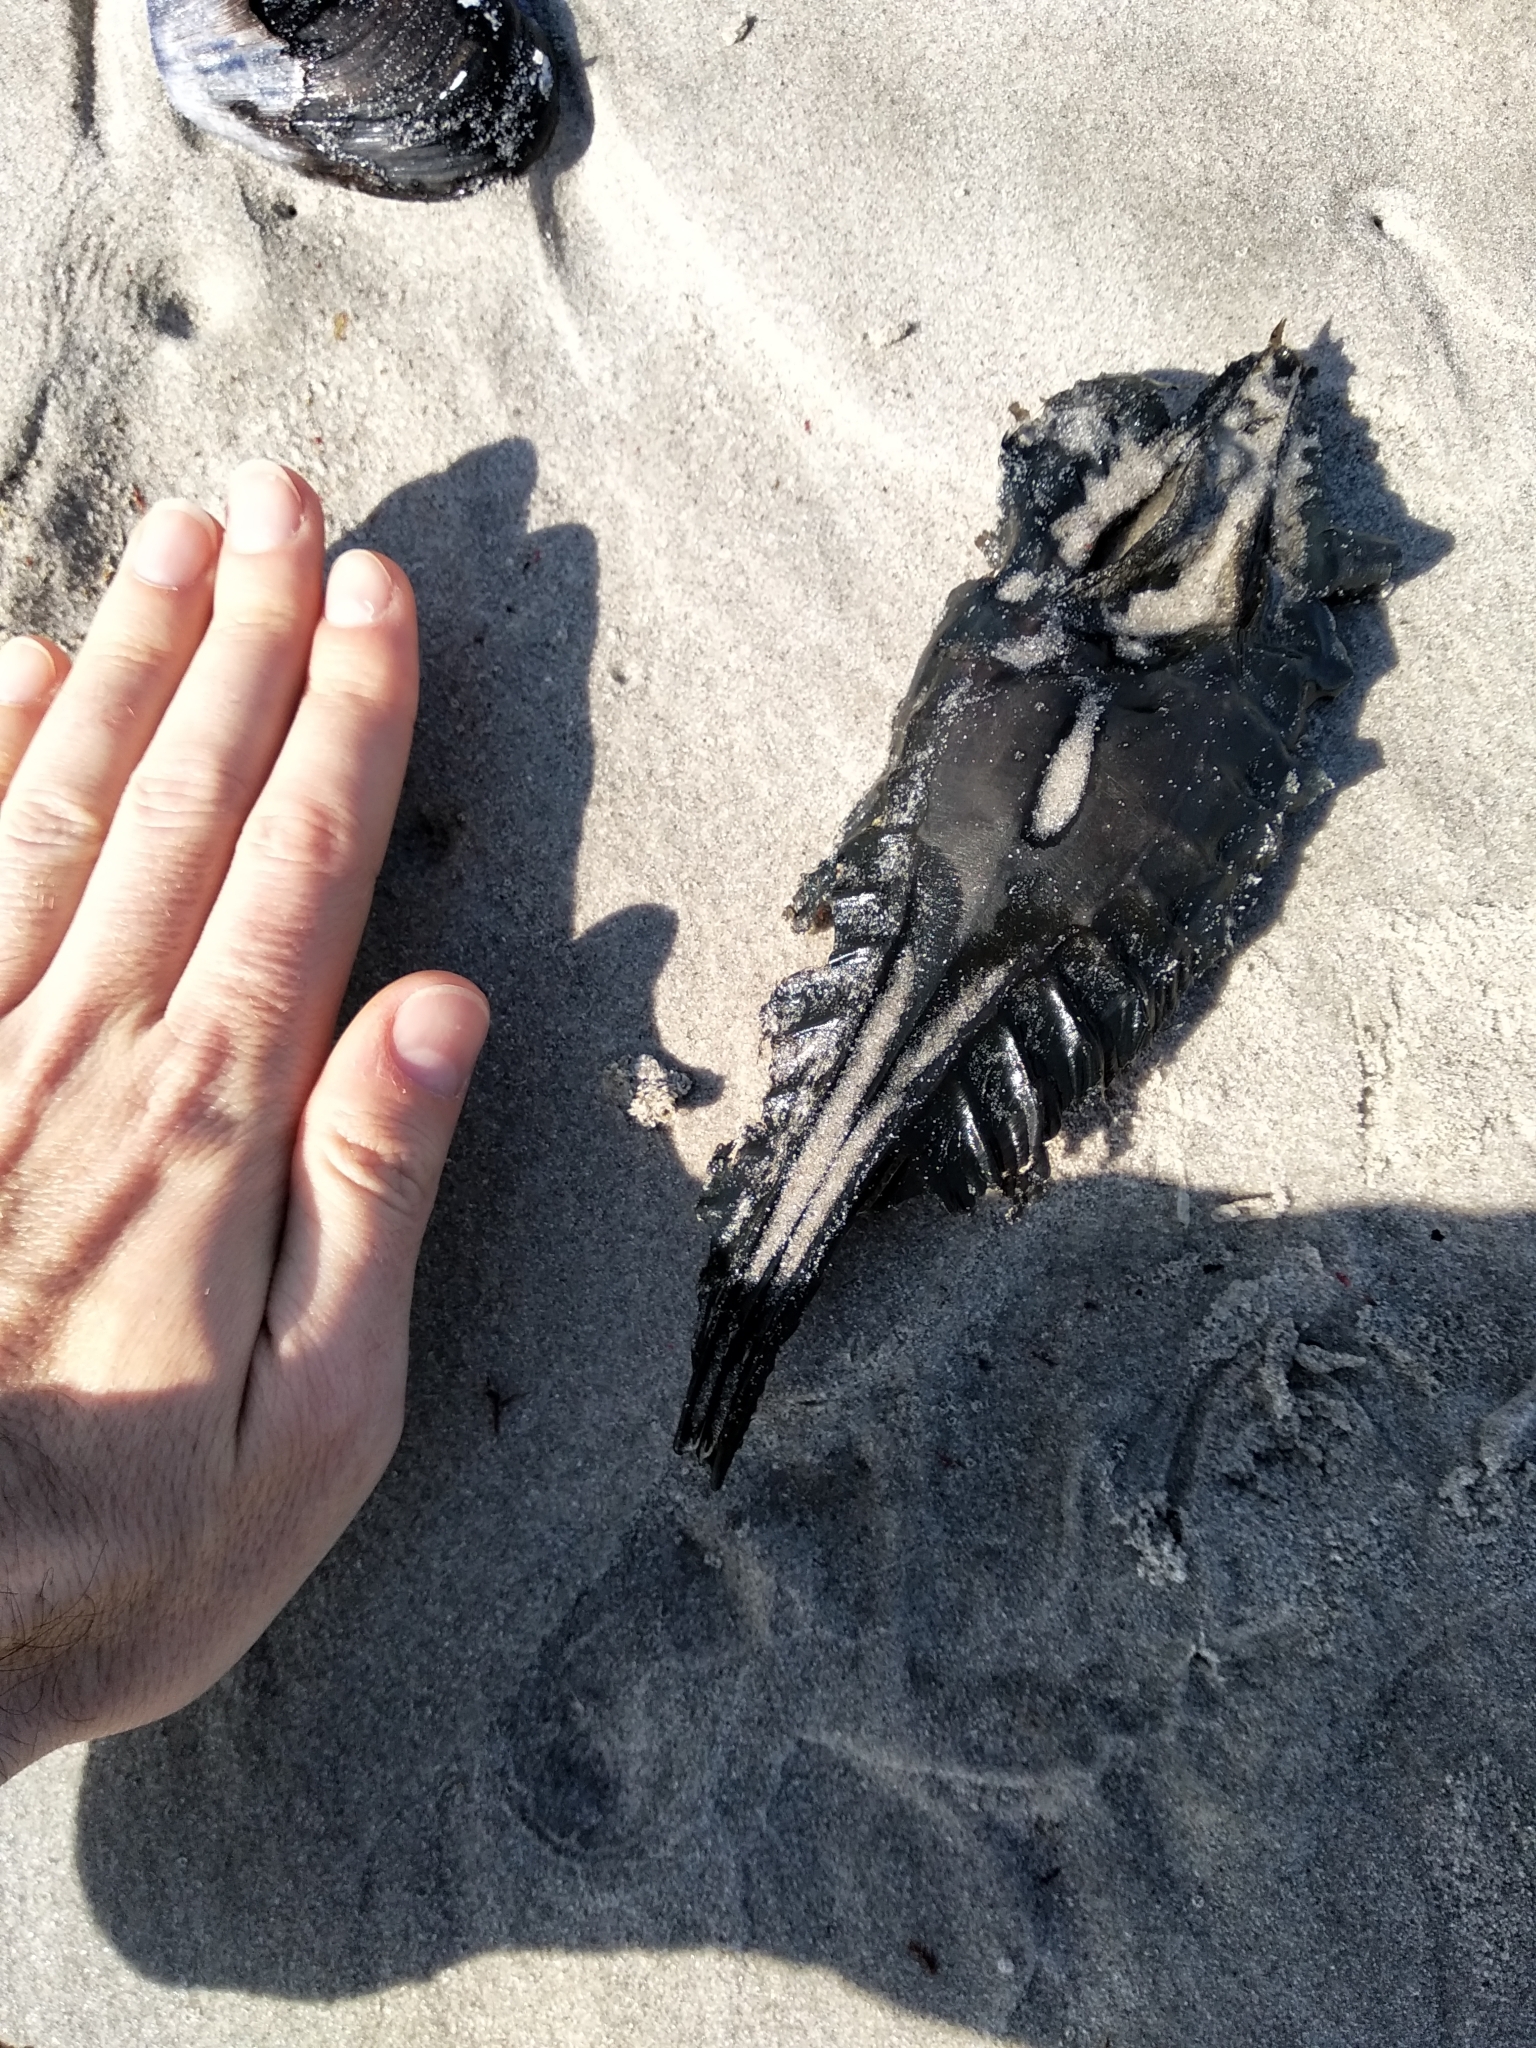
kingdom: Animalia
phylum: Chordata
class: Holocephali
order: Chimaeriformes
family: Callorhinchidae
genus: Callorhinchus
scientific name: Callorhinchus capensis
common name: Cape elephantfish
